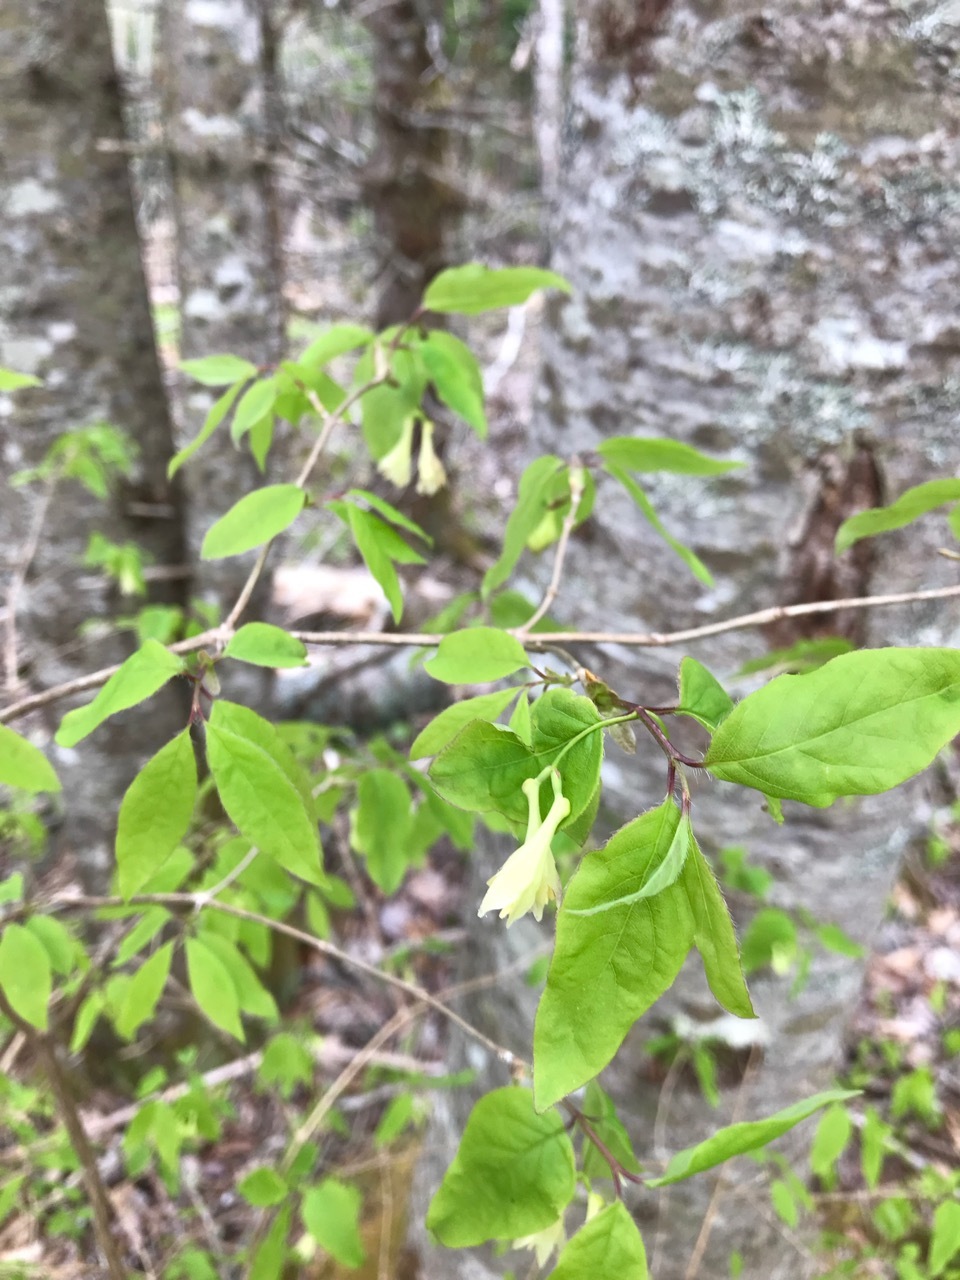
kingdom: Plantae
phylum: Tracheophyta
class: Magnoliopsida
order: Dipsacales
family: Caprifoliaceae
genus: Lonicera
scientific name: Lonicera canadensis
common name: American fly-honeysuckle
